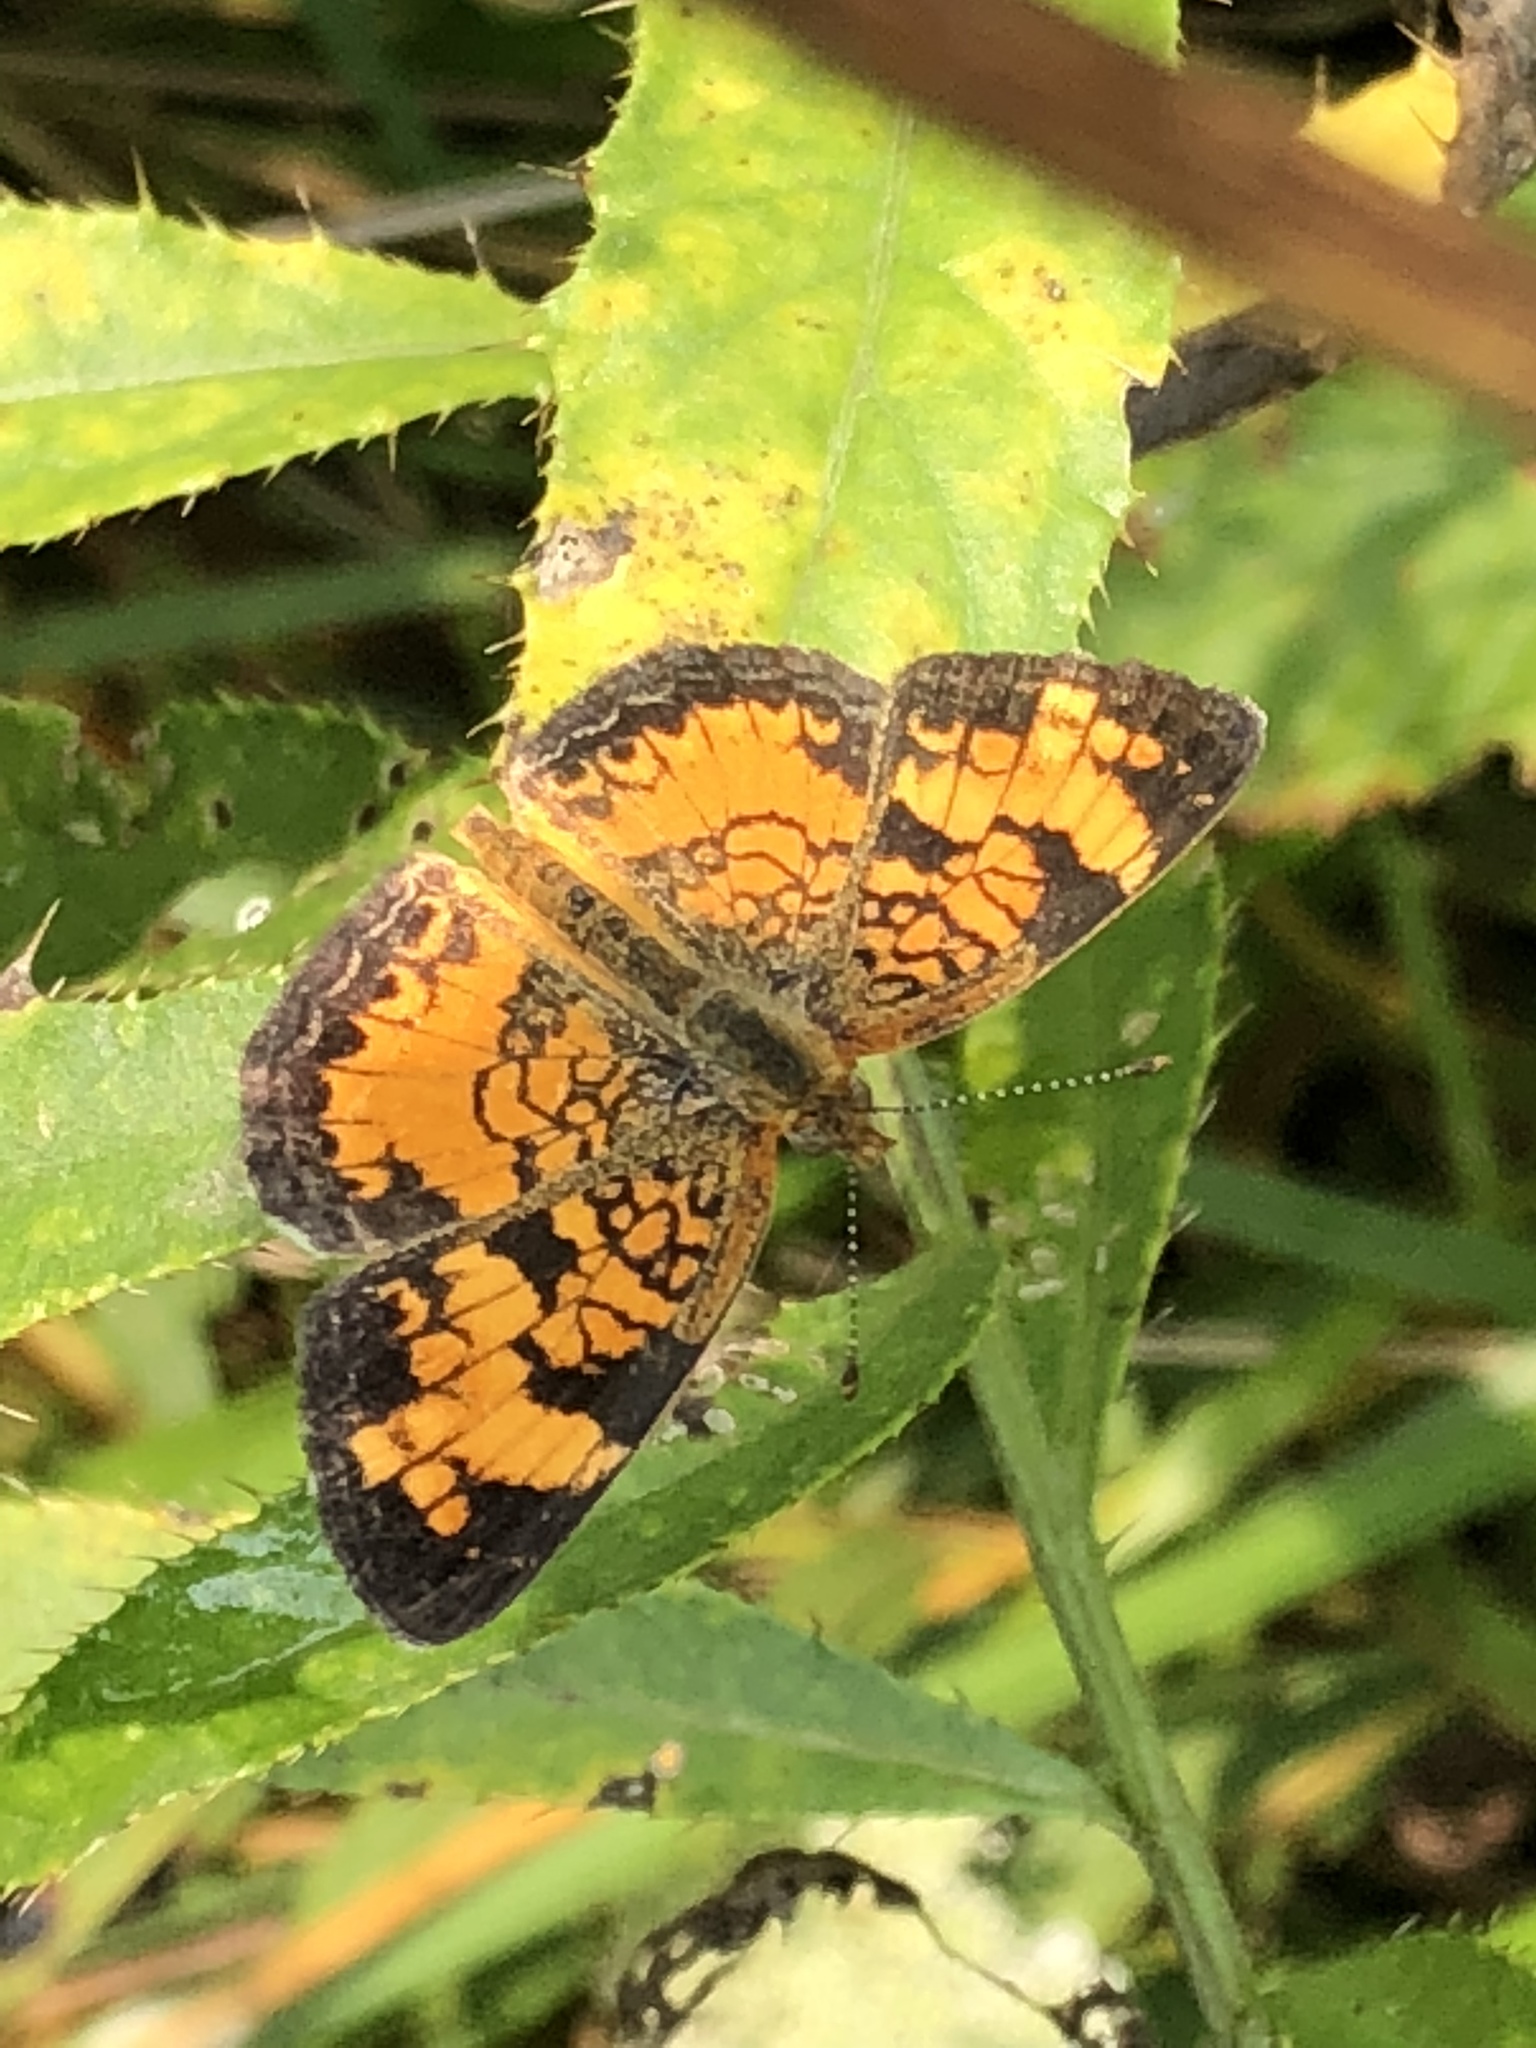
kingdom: Animalia
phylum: Arthropoda
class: Insecta
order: Lepidoptera
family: Nymphalidae
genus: Phyciodes
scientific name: Phyciodes tharos
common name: Pearl crescent
